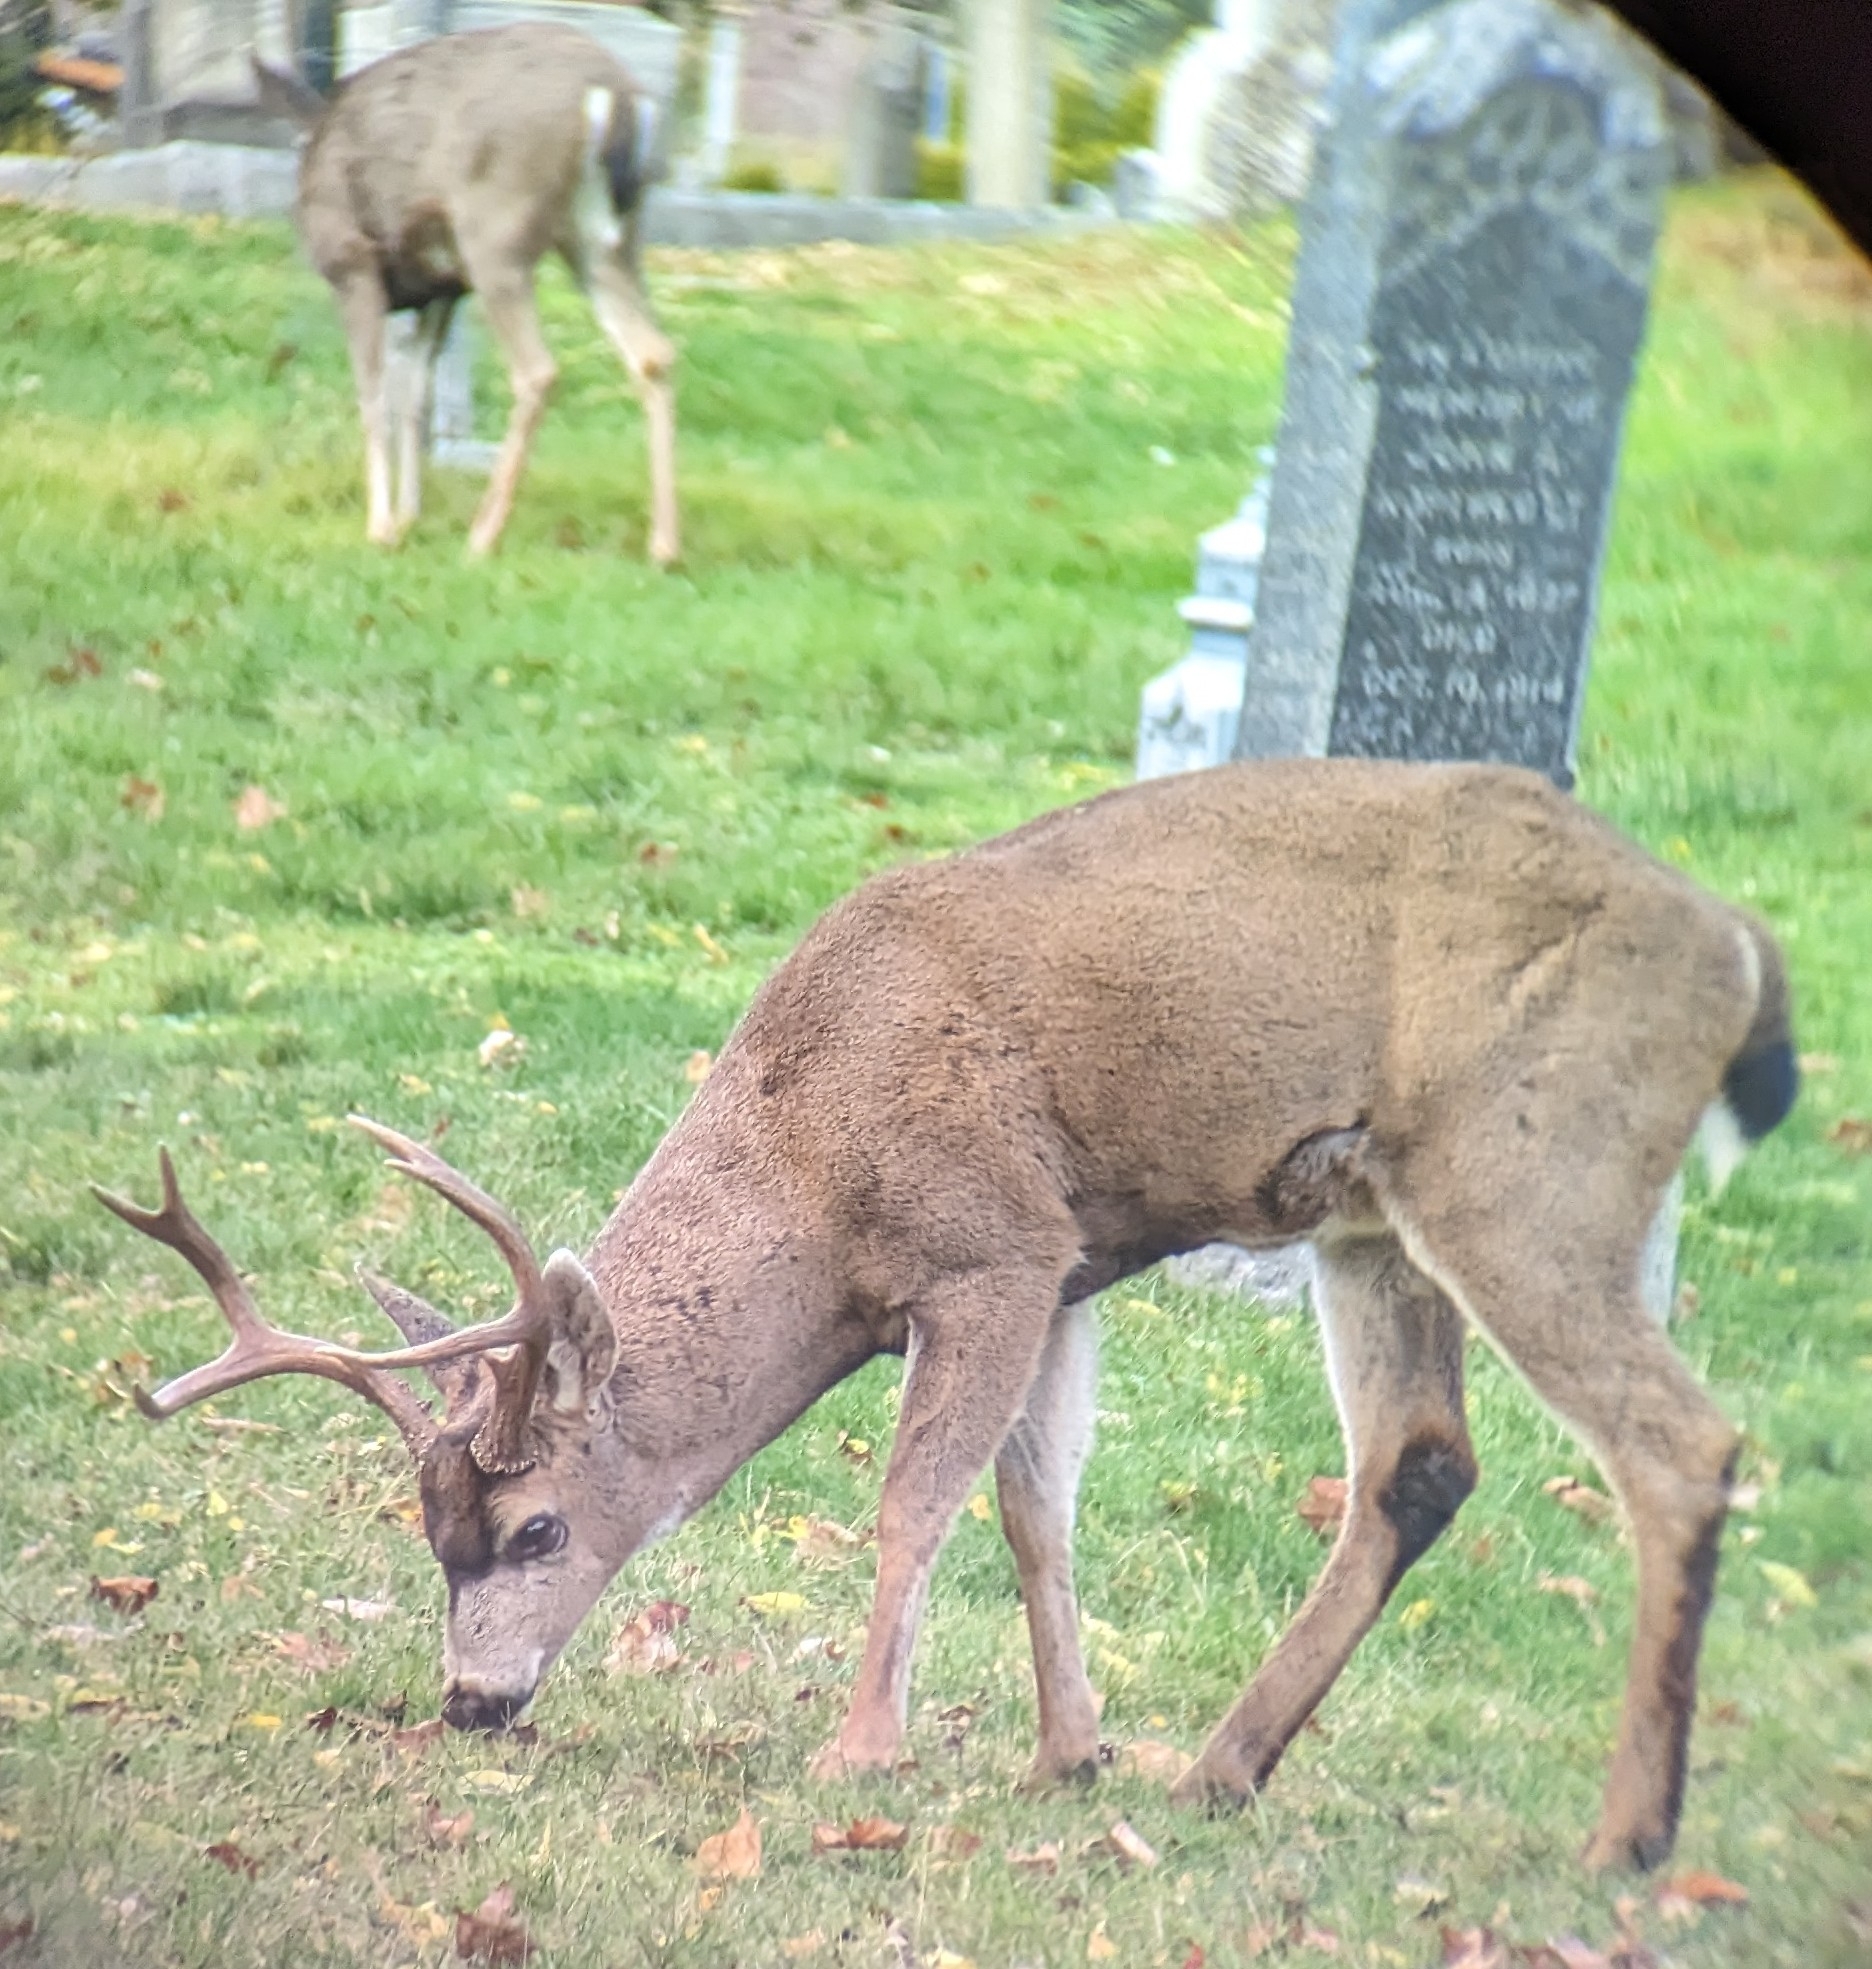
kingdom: Animalia
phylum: Chordata
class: Mammalia
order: Artiodactyla
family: Cervidae
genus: Odocoileus
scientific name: Odocoileus hemionus
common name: Mule deer
